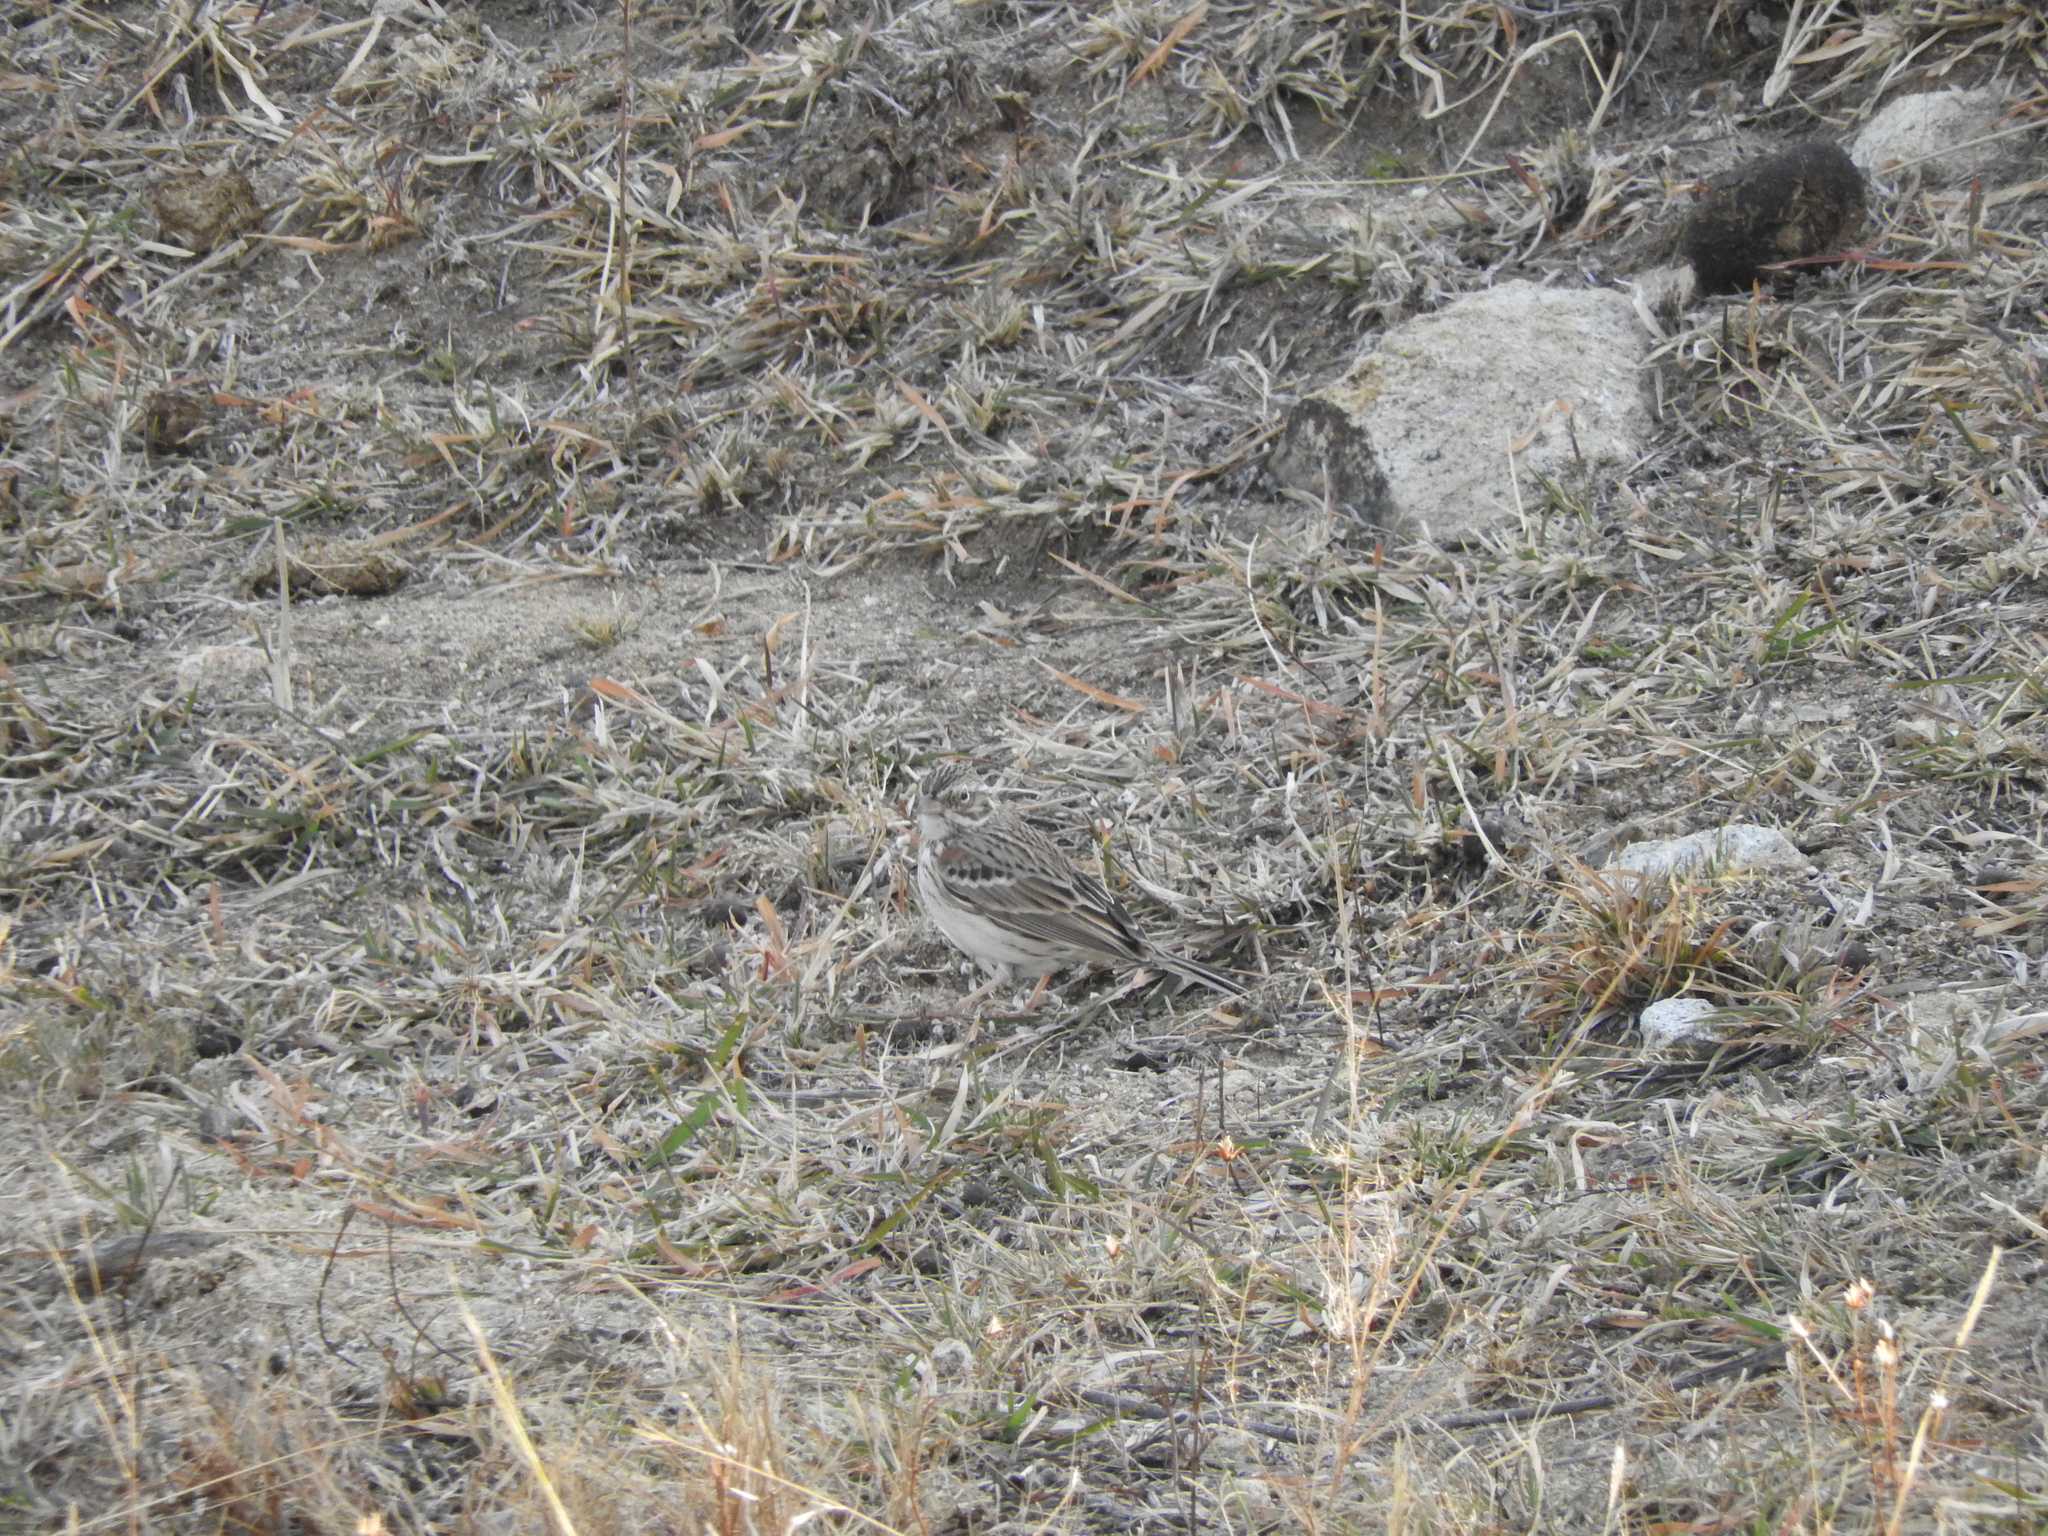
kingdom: Animalia
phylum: Chordata
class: Aves
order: Passeriformes
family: Passerellidae
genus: Pooecetes
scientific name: Pooecetes gramineus
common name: Vesper sparrow
